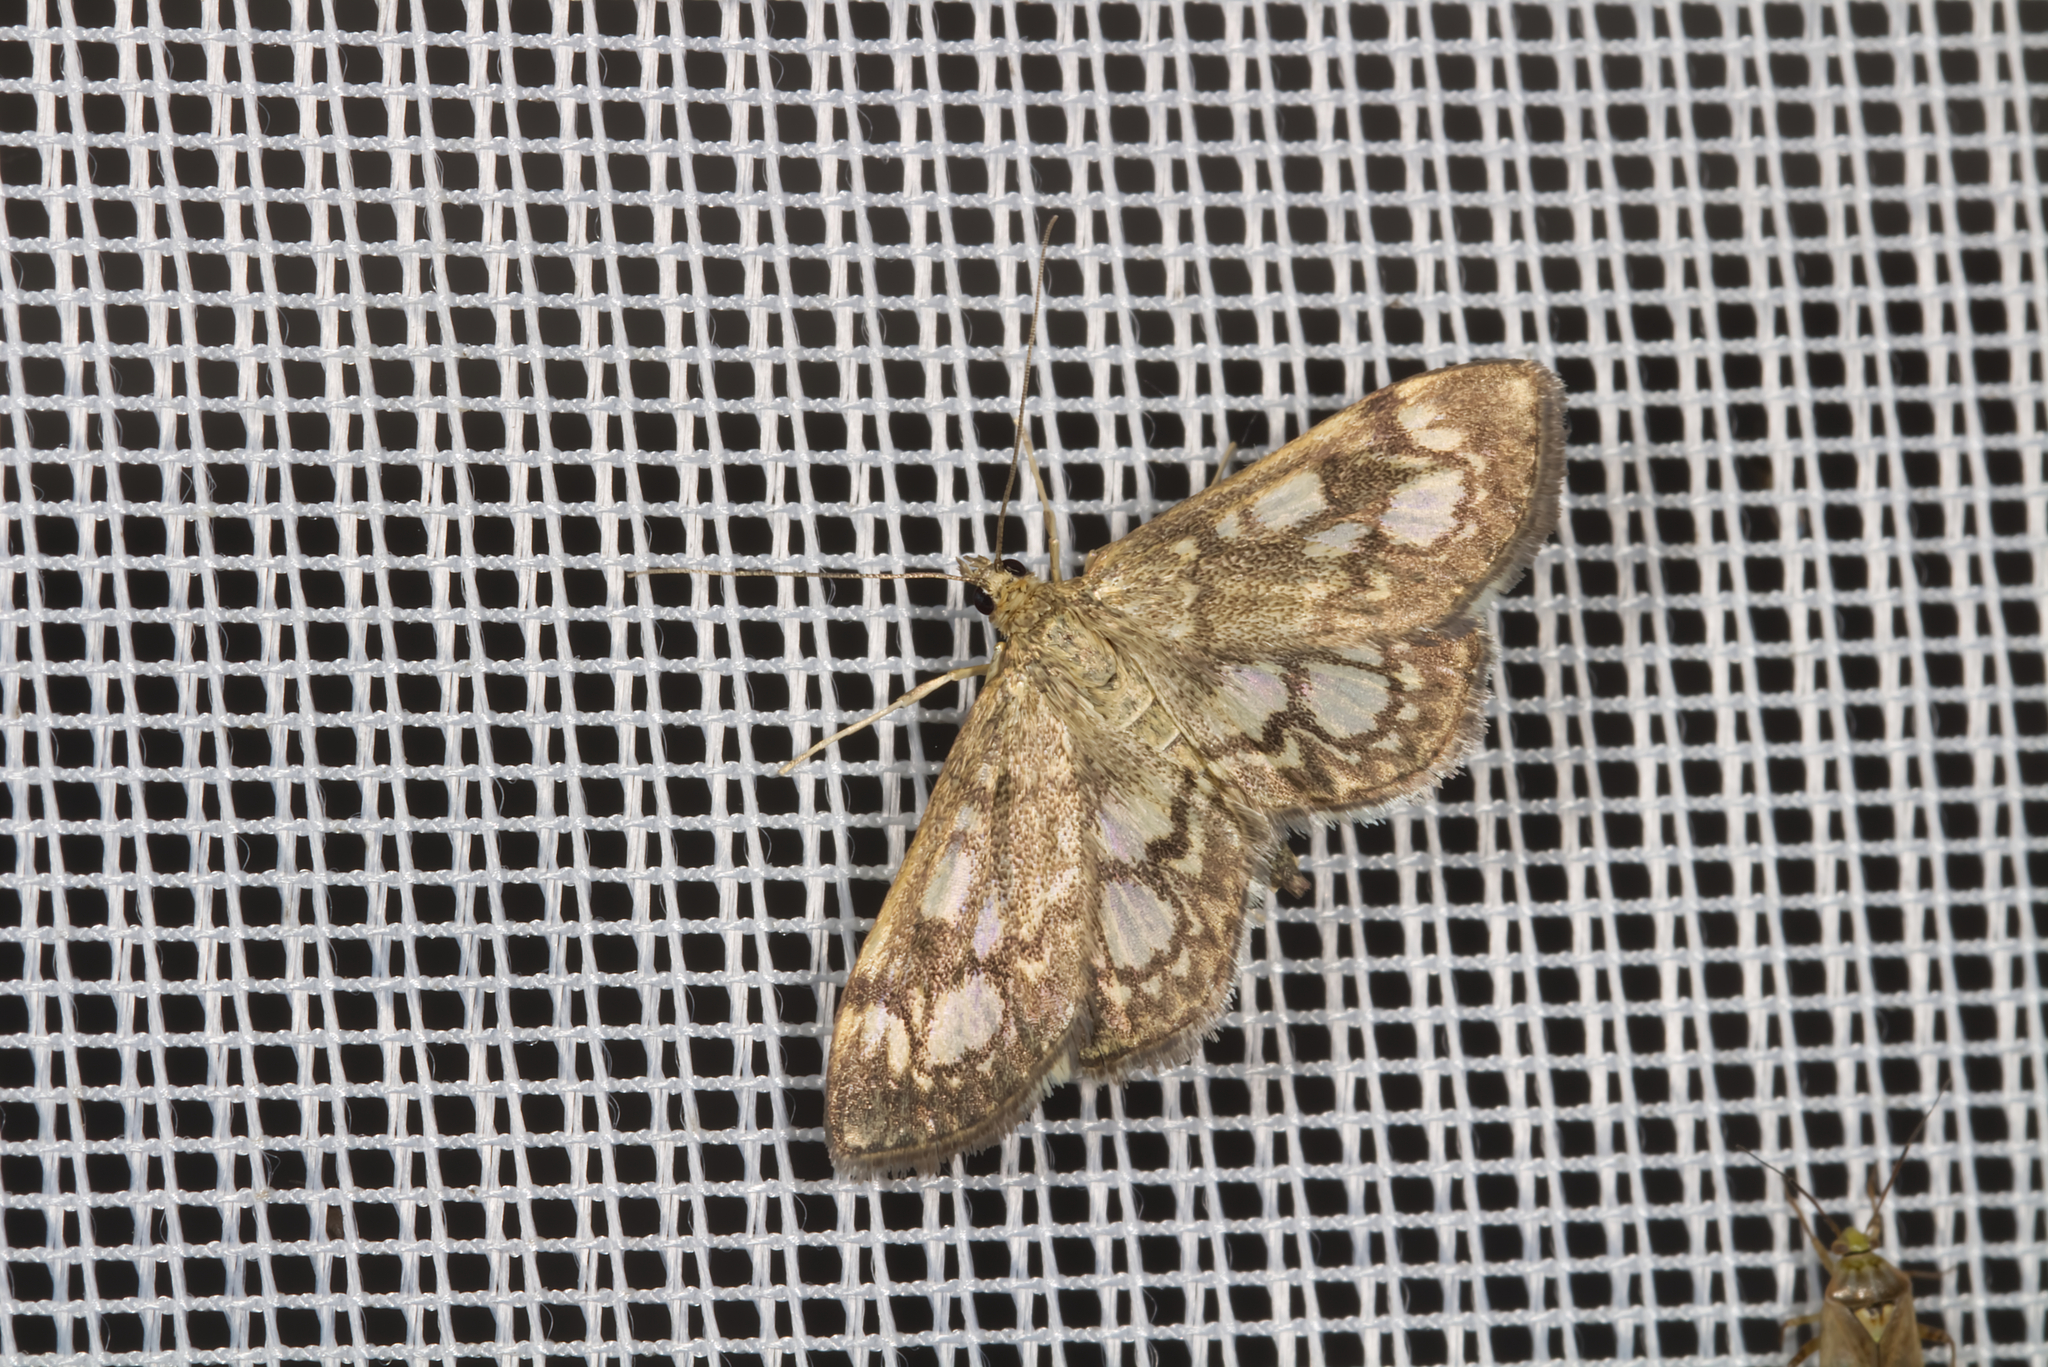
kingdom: Animalia
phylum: Arthropoda
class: Insecta
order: Lepidoptera
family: Crambidae
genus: Anania
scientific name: Anania coronata
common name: Elder pearl
